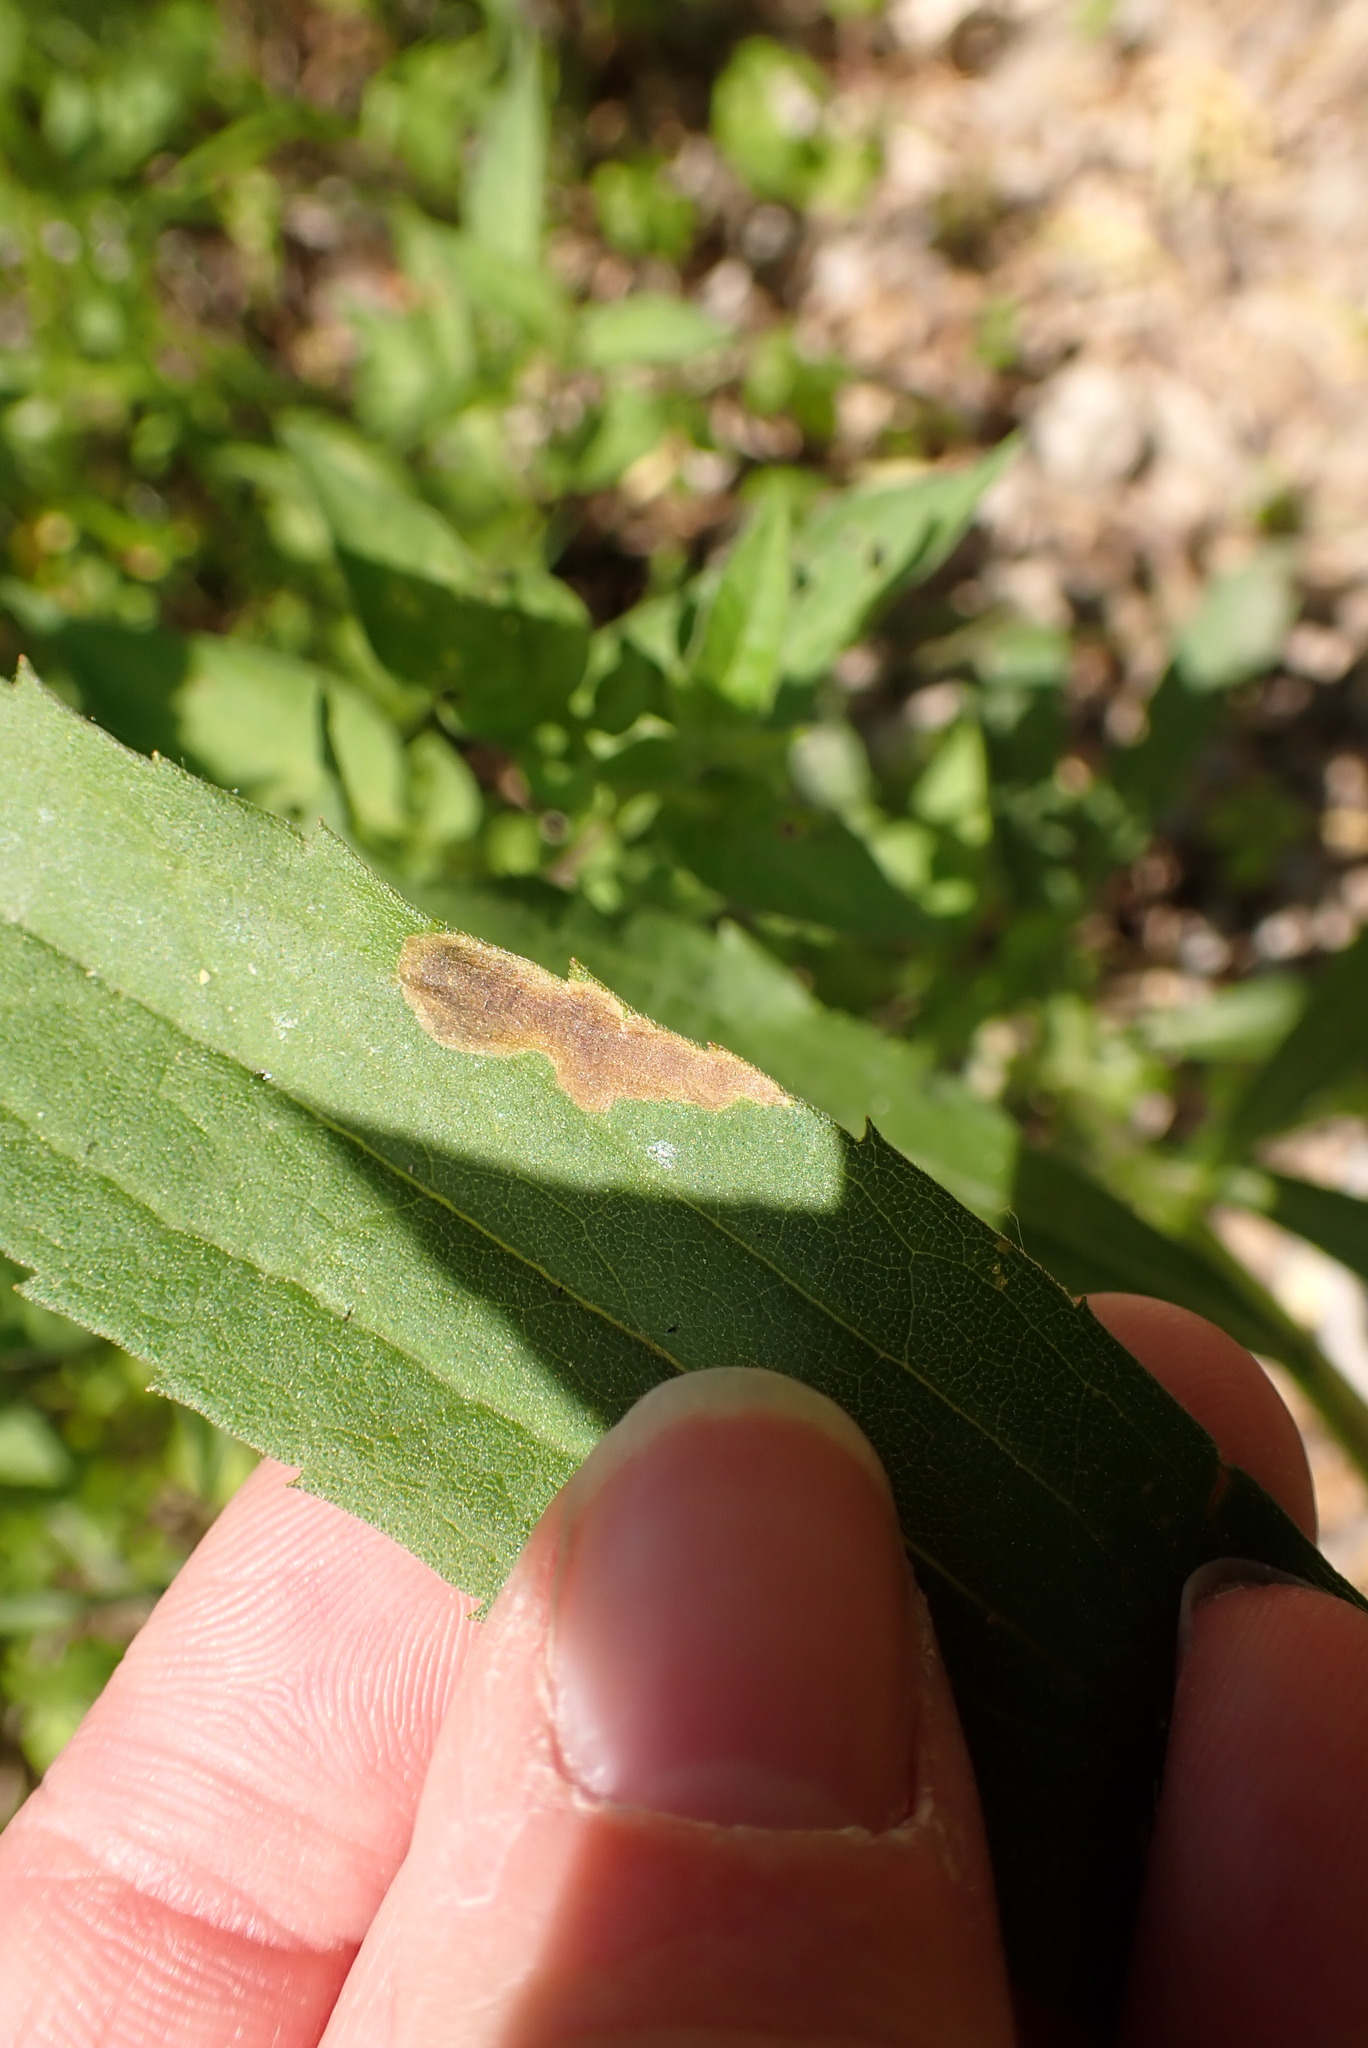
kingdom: Animalia
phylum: Arthropoda
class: Insecta
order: Diptera
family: Agromyzidae
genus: Nemorimyza
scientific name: Nemorimyza posticata
